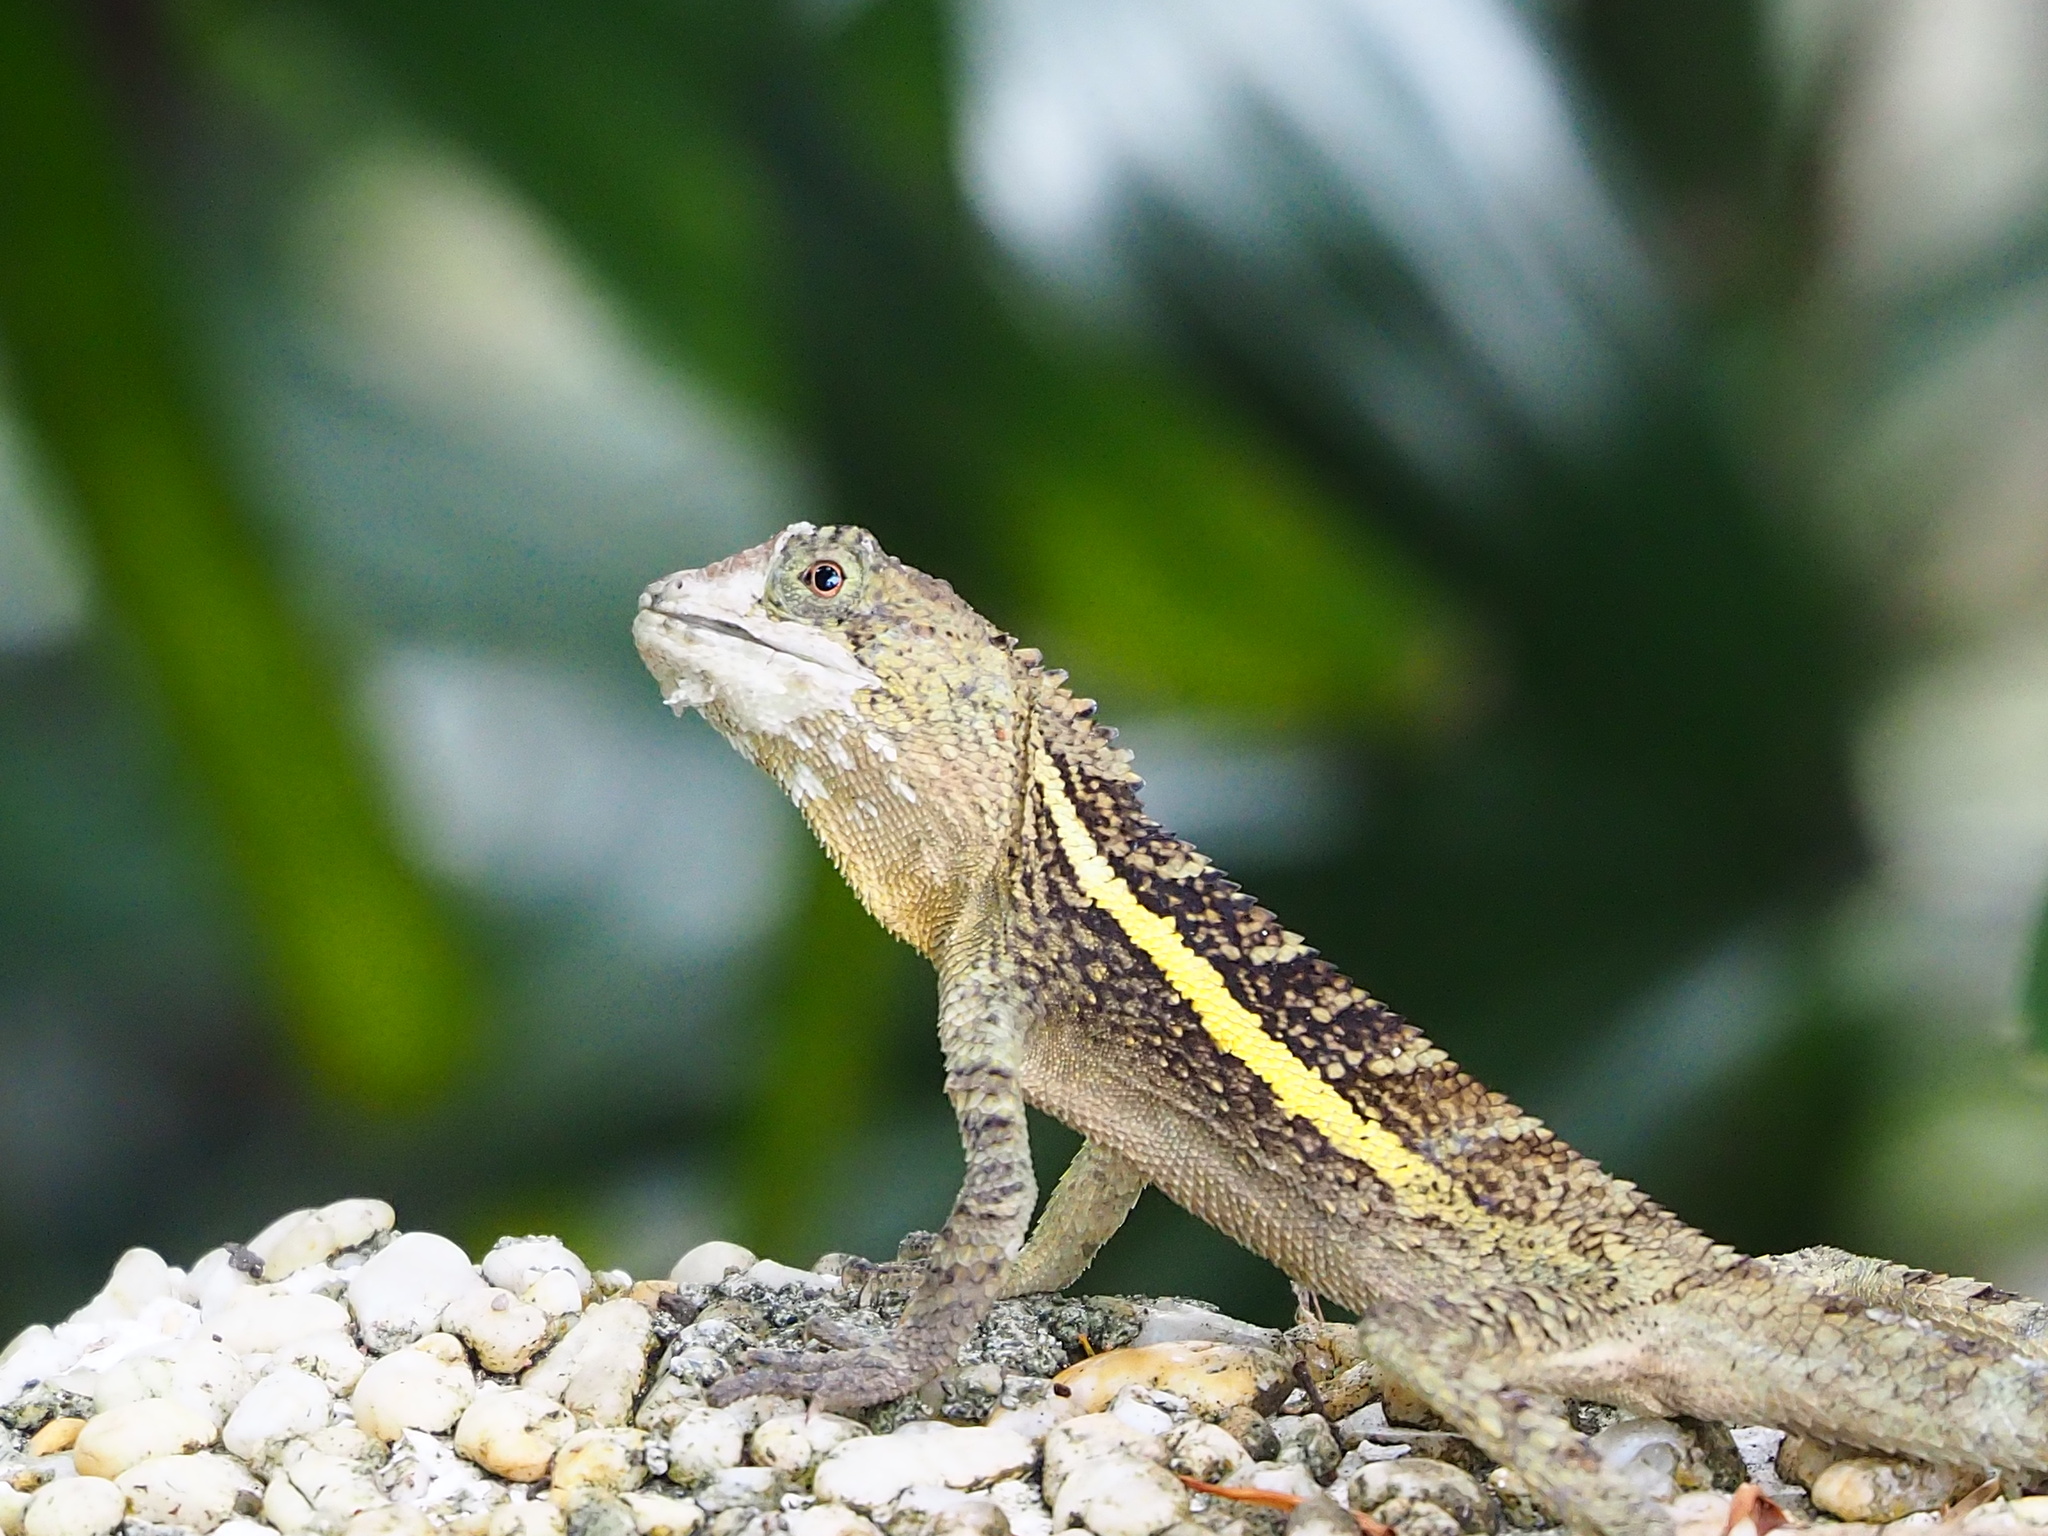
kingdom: Animalia
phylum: Chordata
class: Squamata
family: Agamidae
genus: Diploderma
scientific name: Diploderma swinhonis
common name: Taiwan japalure
